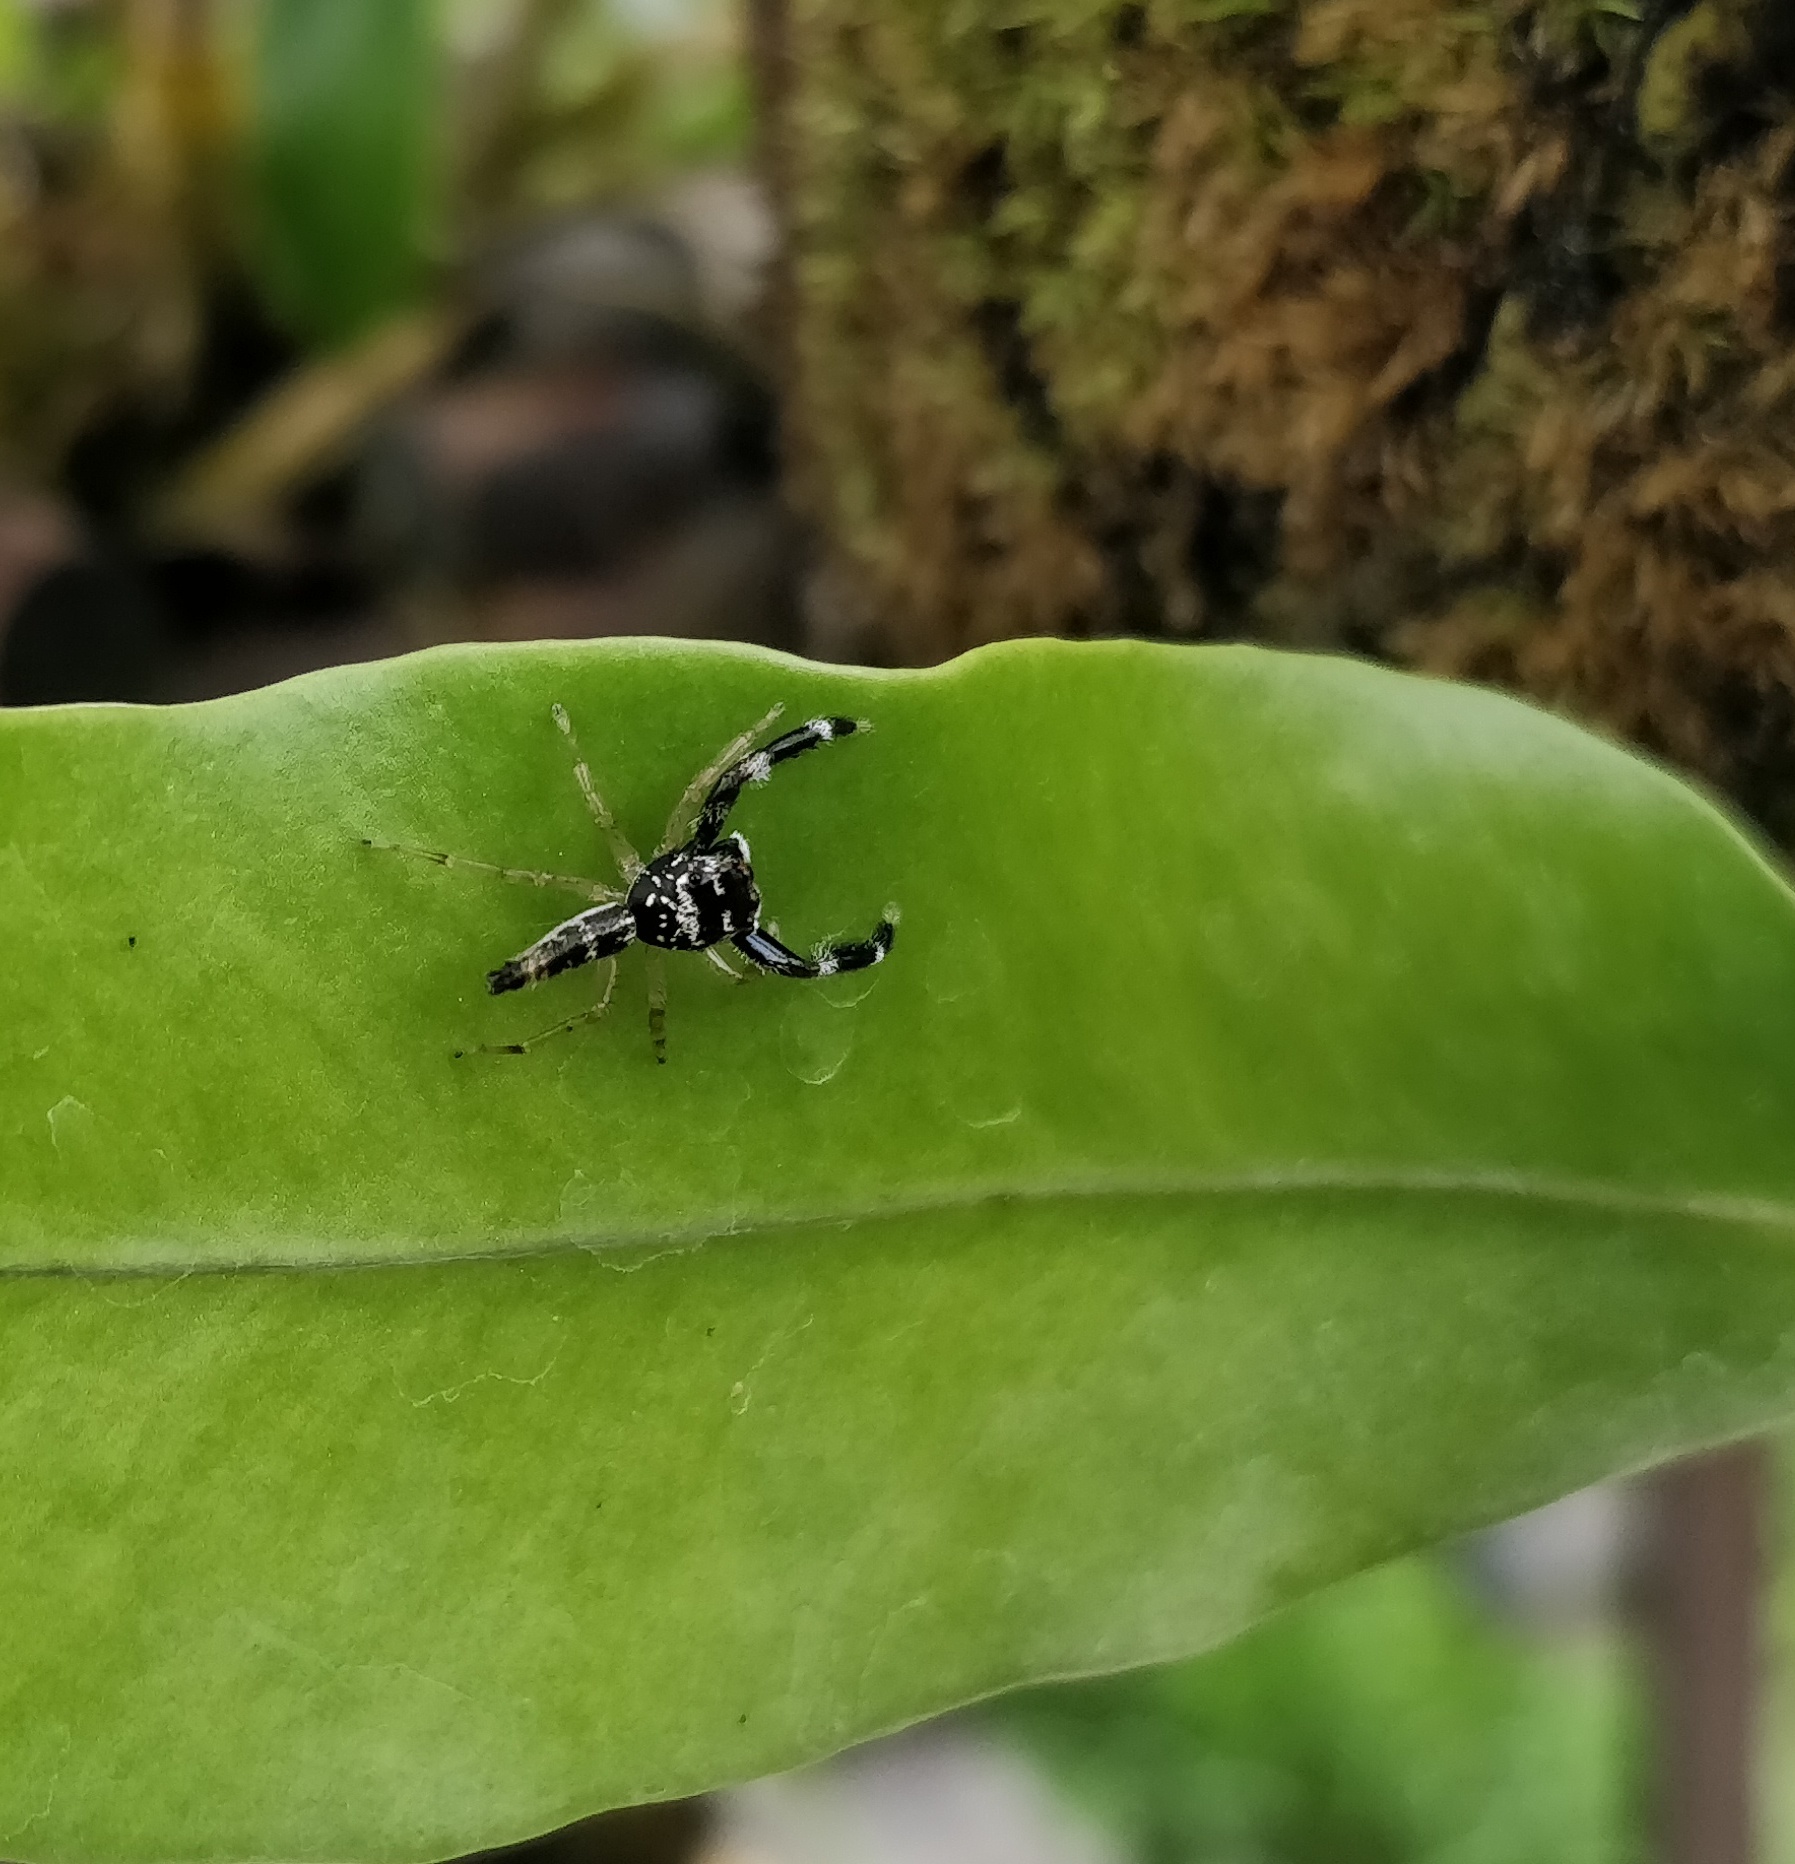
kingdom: Animalia
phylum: Arthropoda
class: Arachnida
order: Araneae
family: Salticidae
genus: Bavia
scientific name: Bavia sexpunctata
